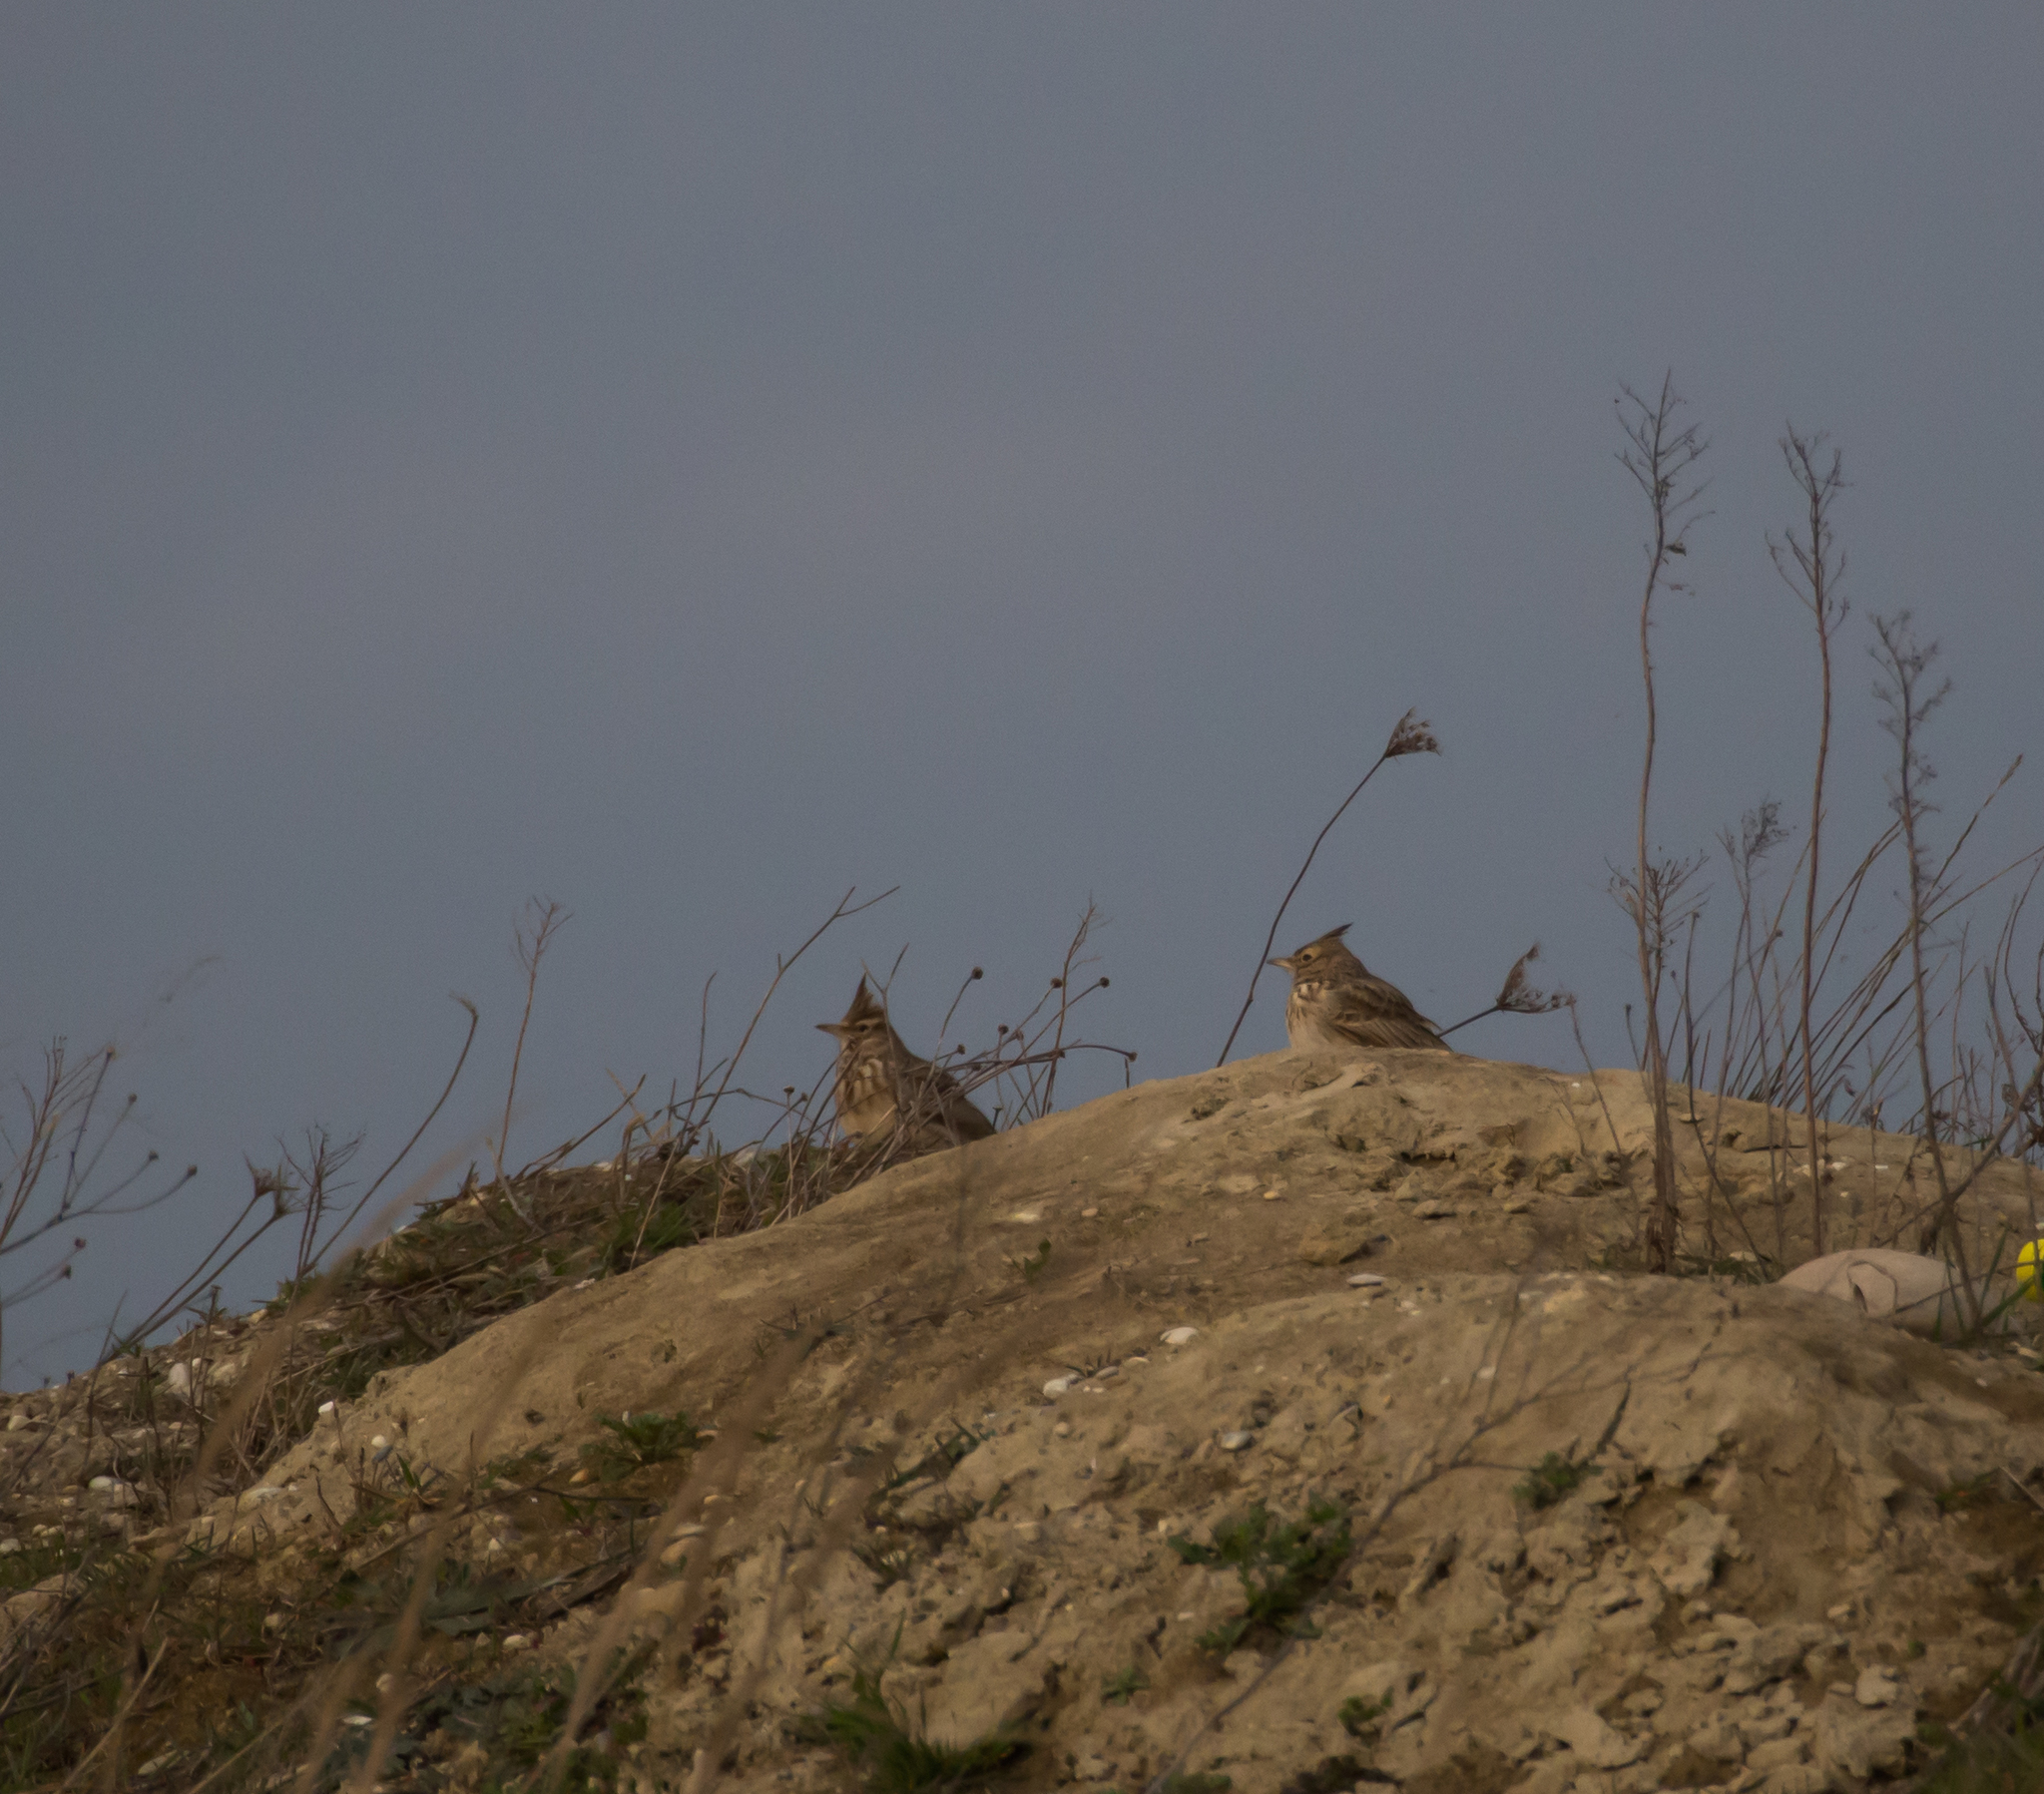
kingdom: Animalia
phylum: Chordata
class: Aves
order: Passeriformes
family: Alaudidae
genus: Galerida
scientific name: Galerida cristata
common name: Crested lark
